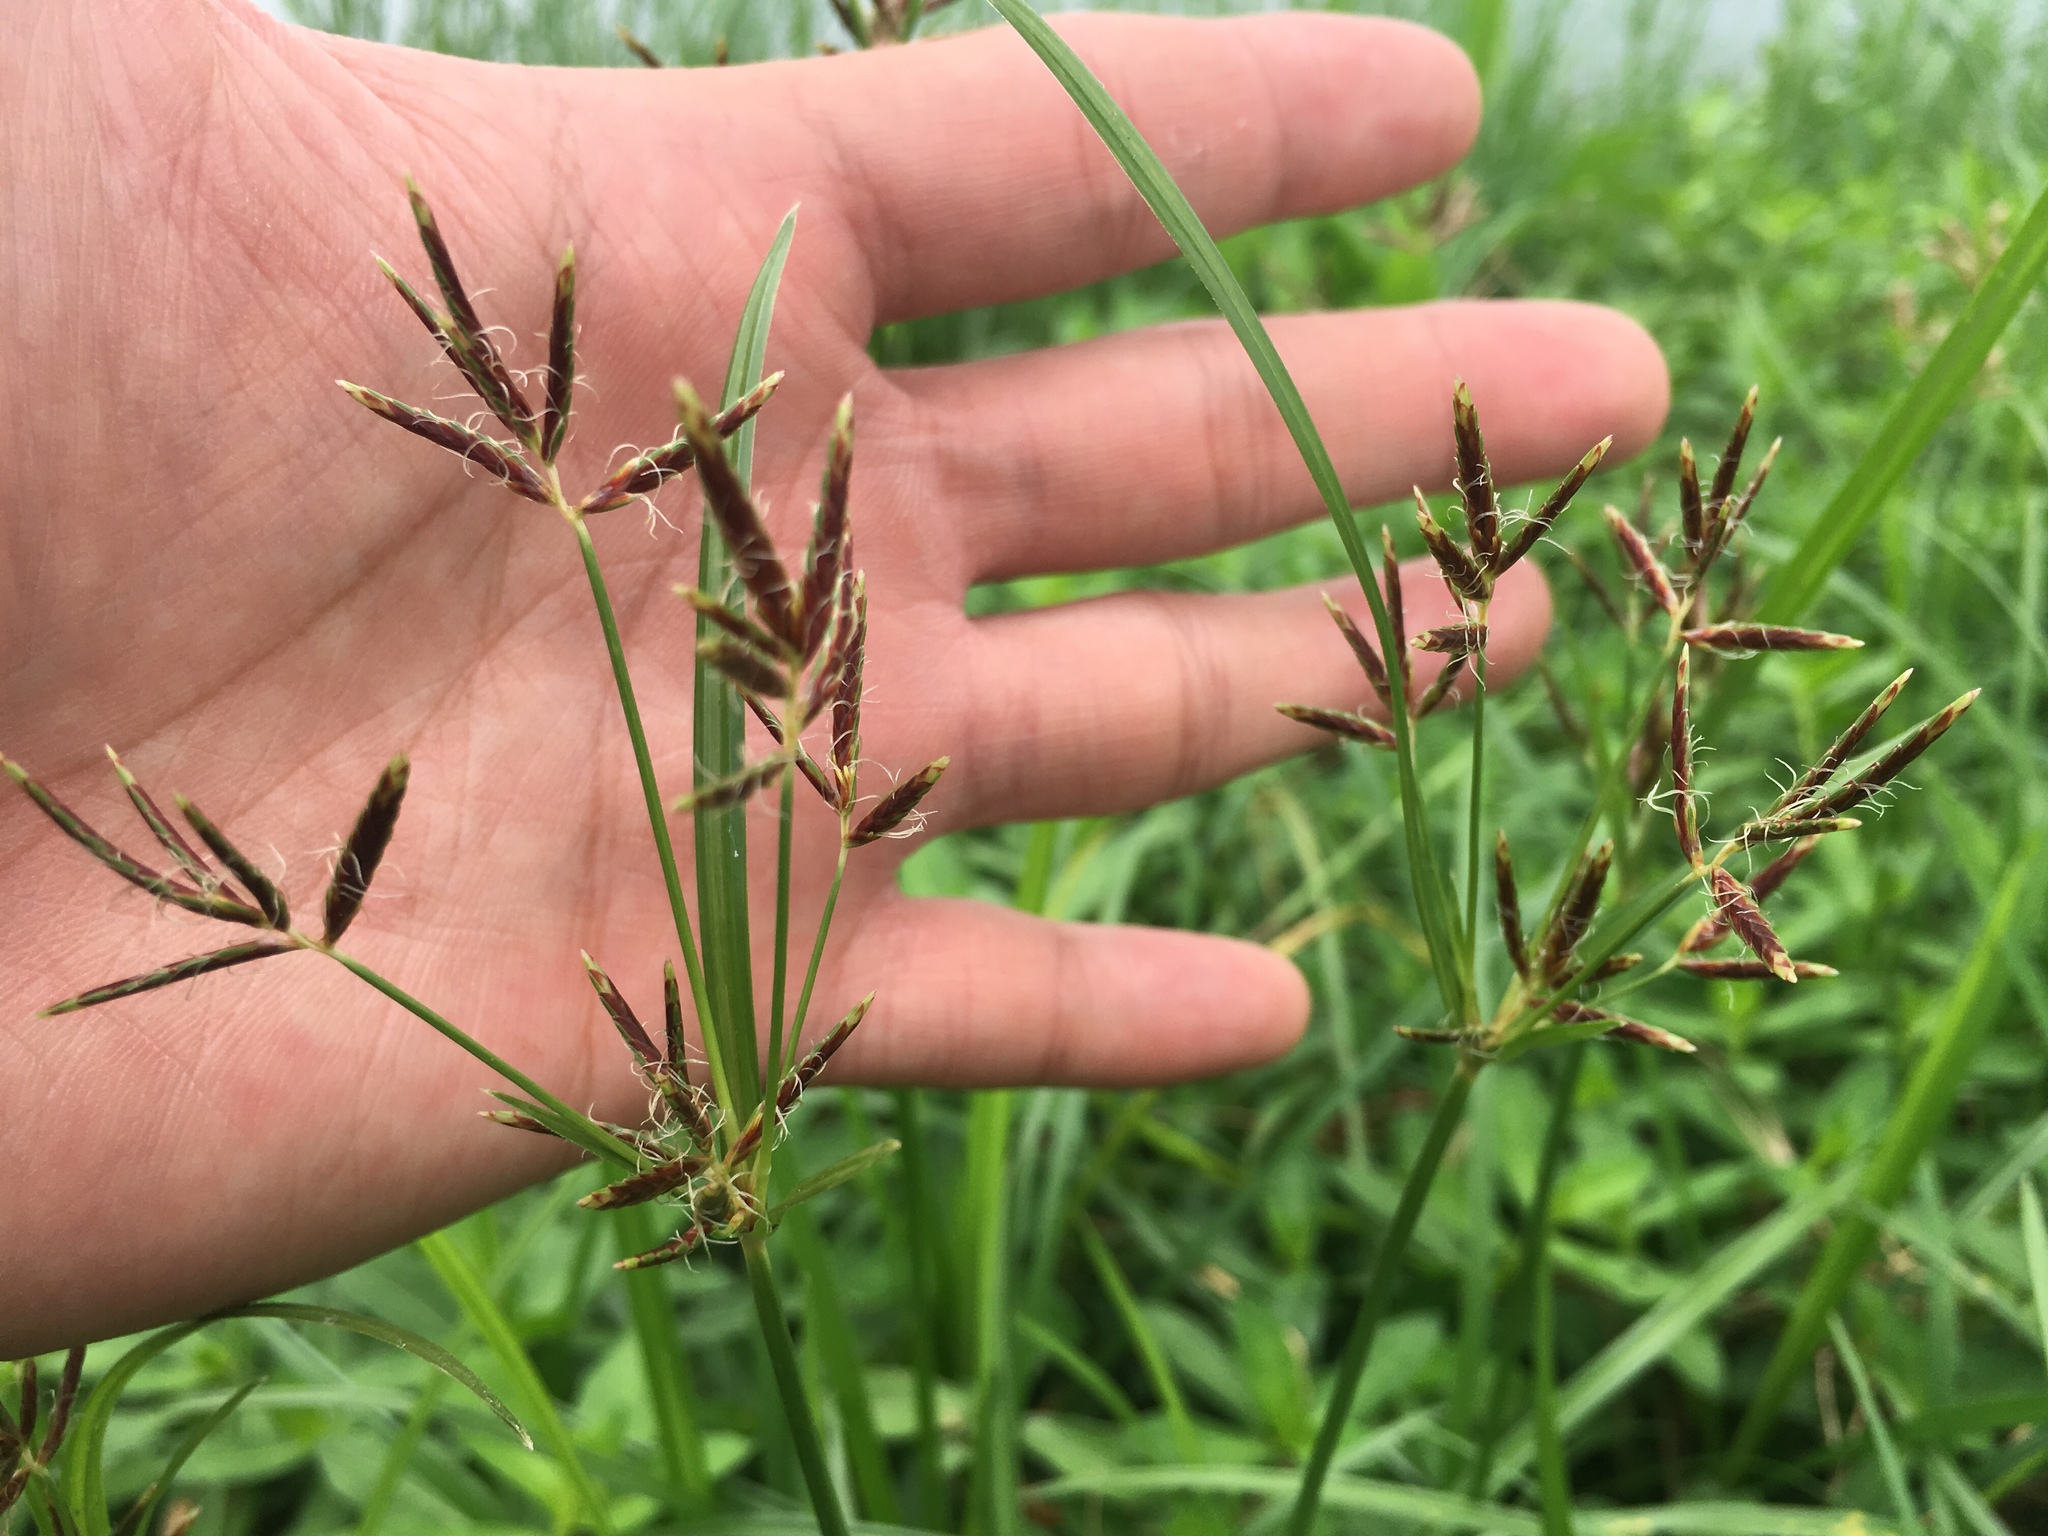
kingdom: Plantae
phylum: Tracheophyta
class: Liliopsida
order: Poales
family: Cyperaceae
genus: Cyperus
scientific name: Cyperus rotundus
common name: Nutgrass
